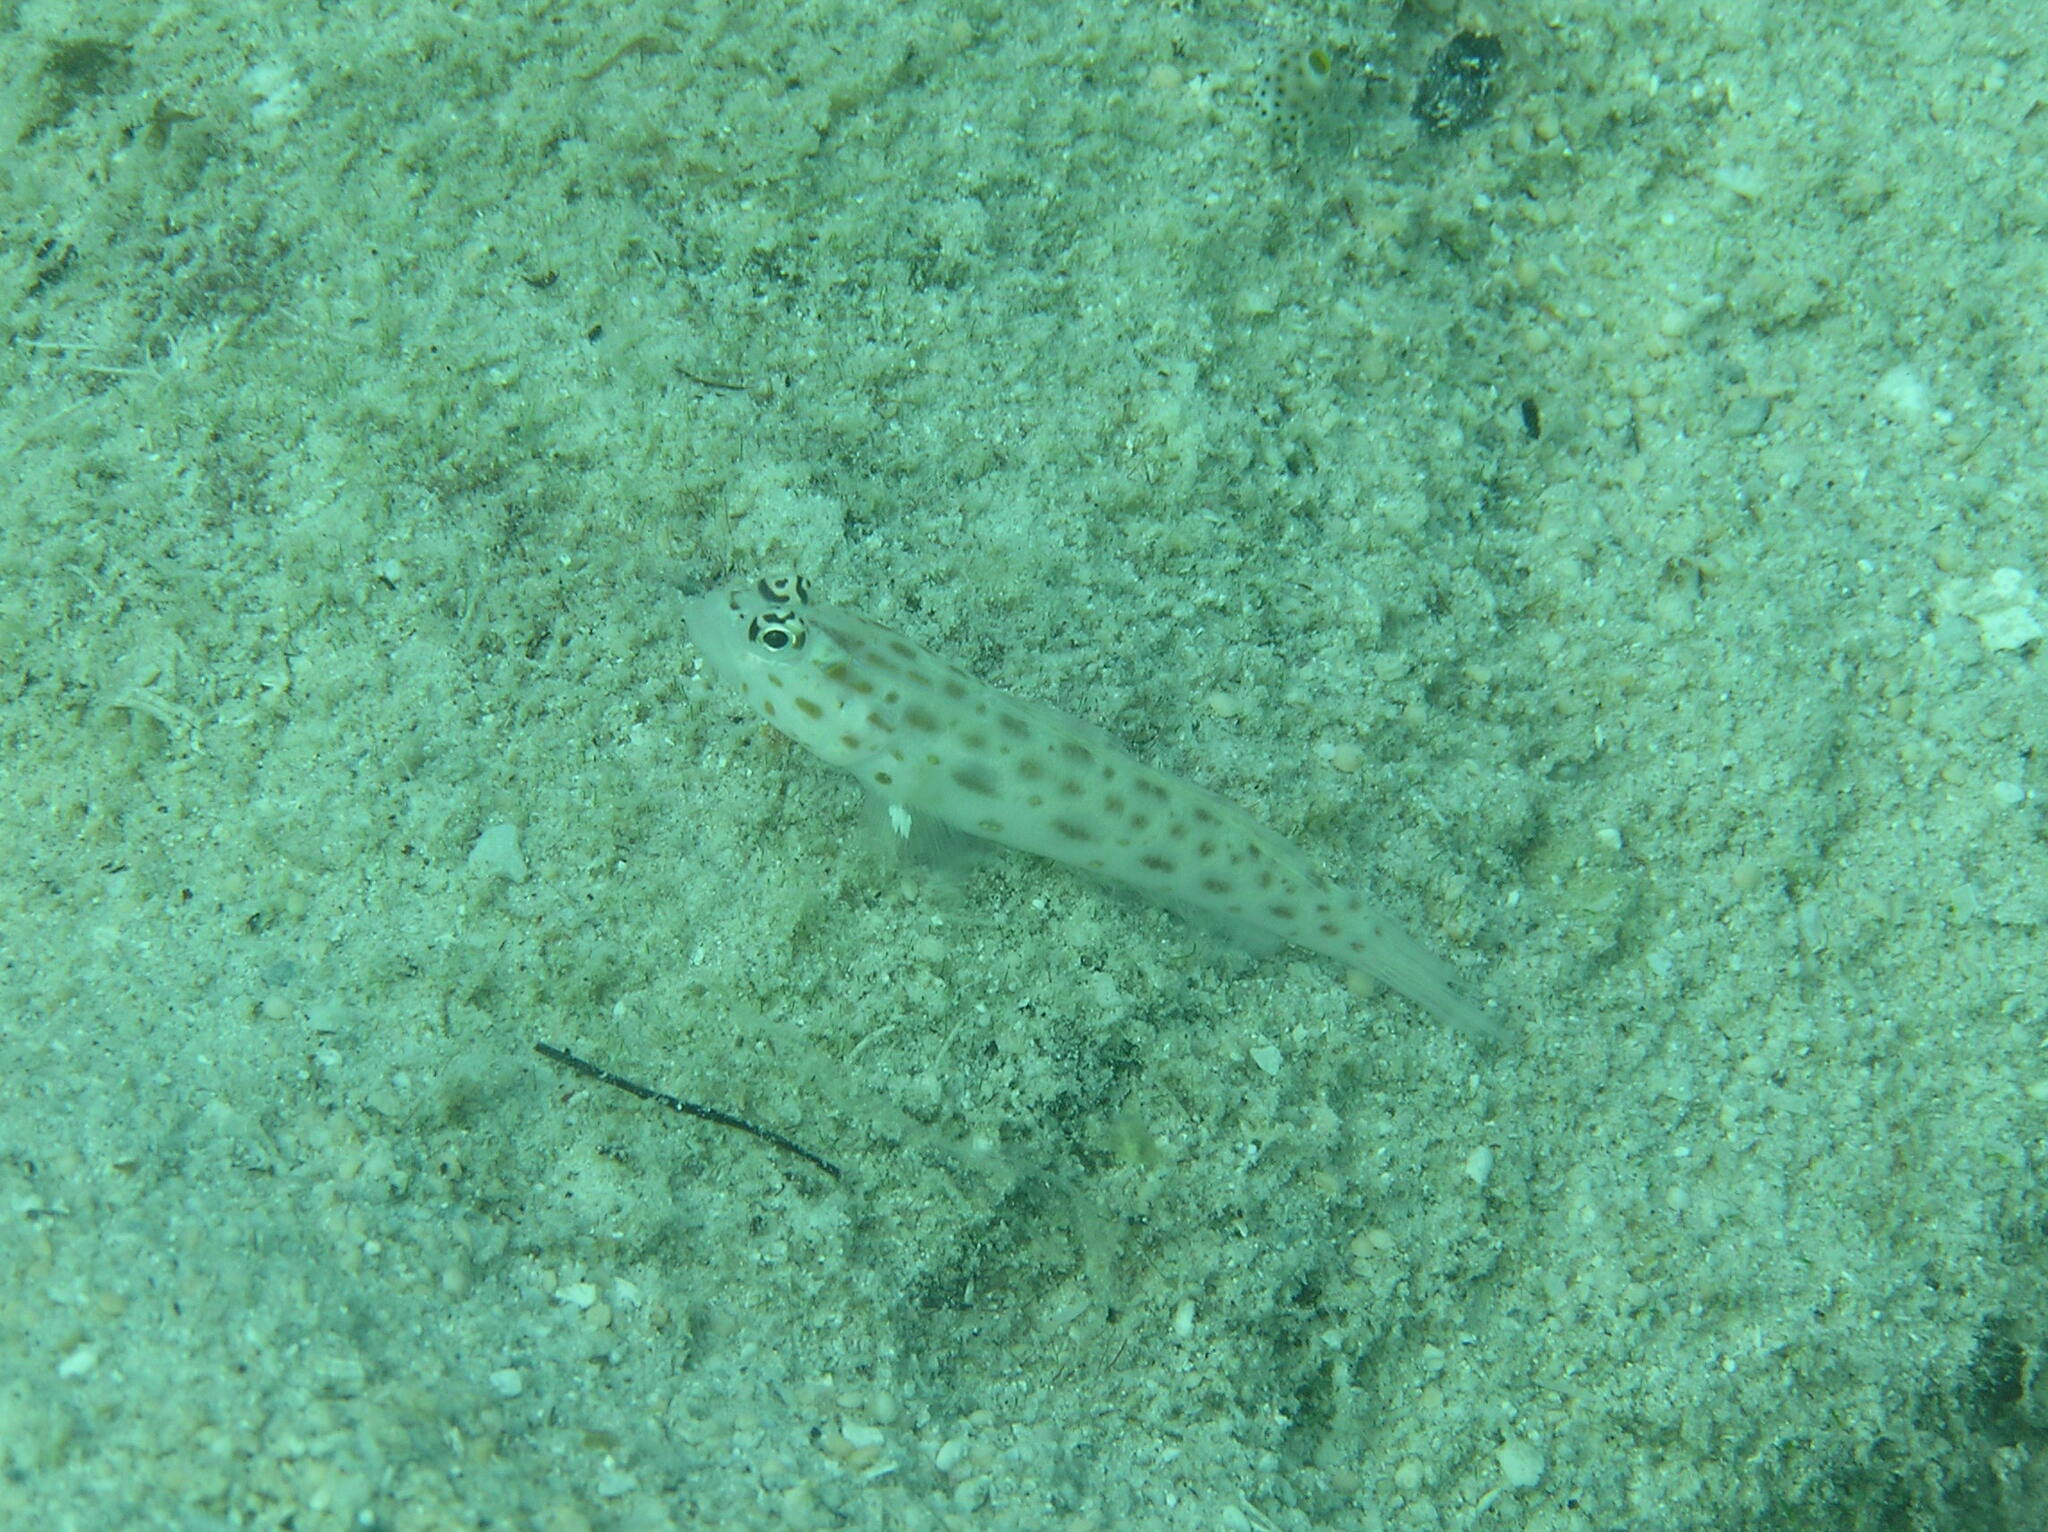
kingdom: Animalia
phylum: Chordata
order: Perciformes
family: Gobiidae
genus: Ctenogobiops
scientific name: Ctenogobiops pomastictus
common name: Spotfin shrimp goby
